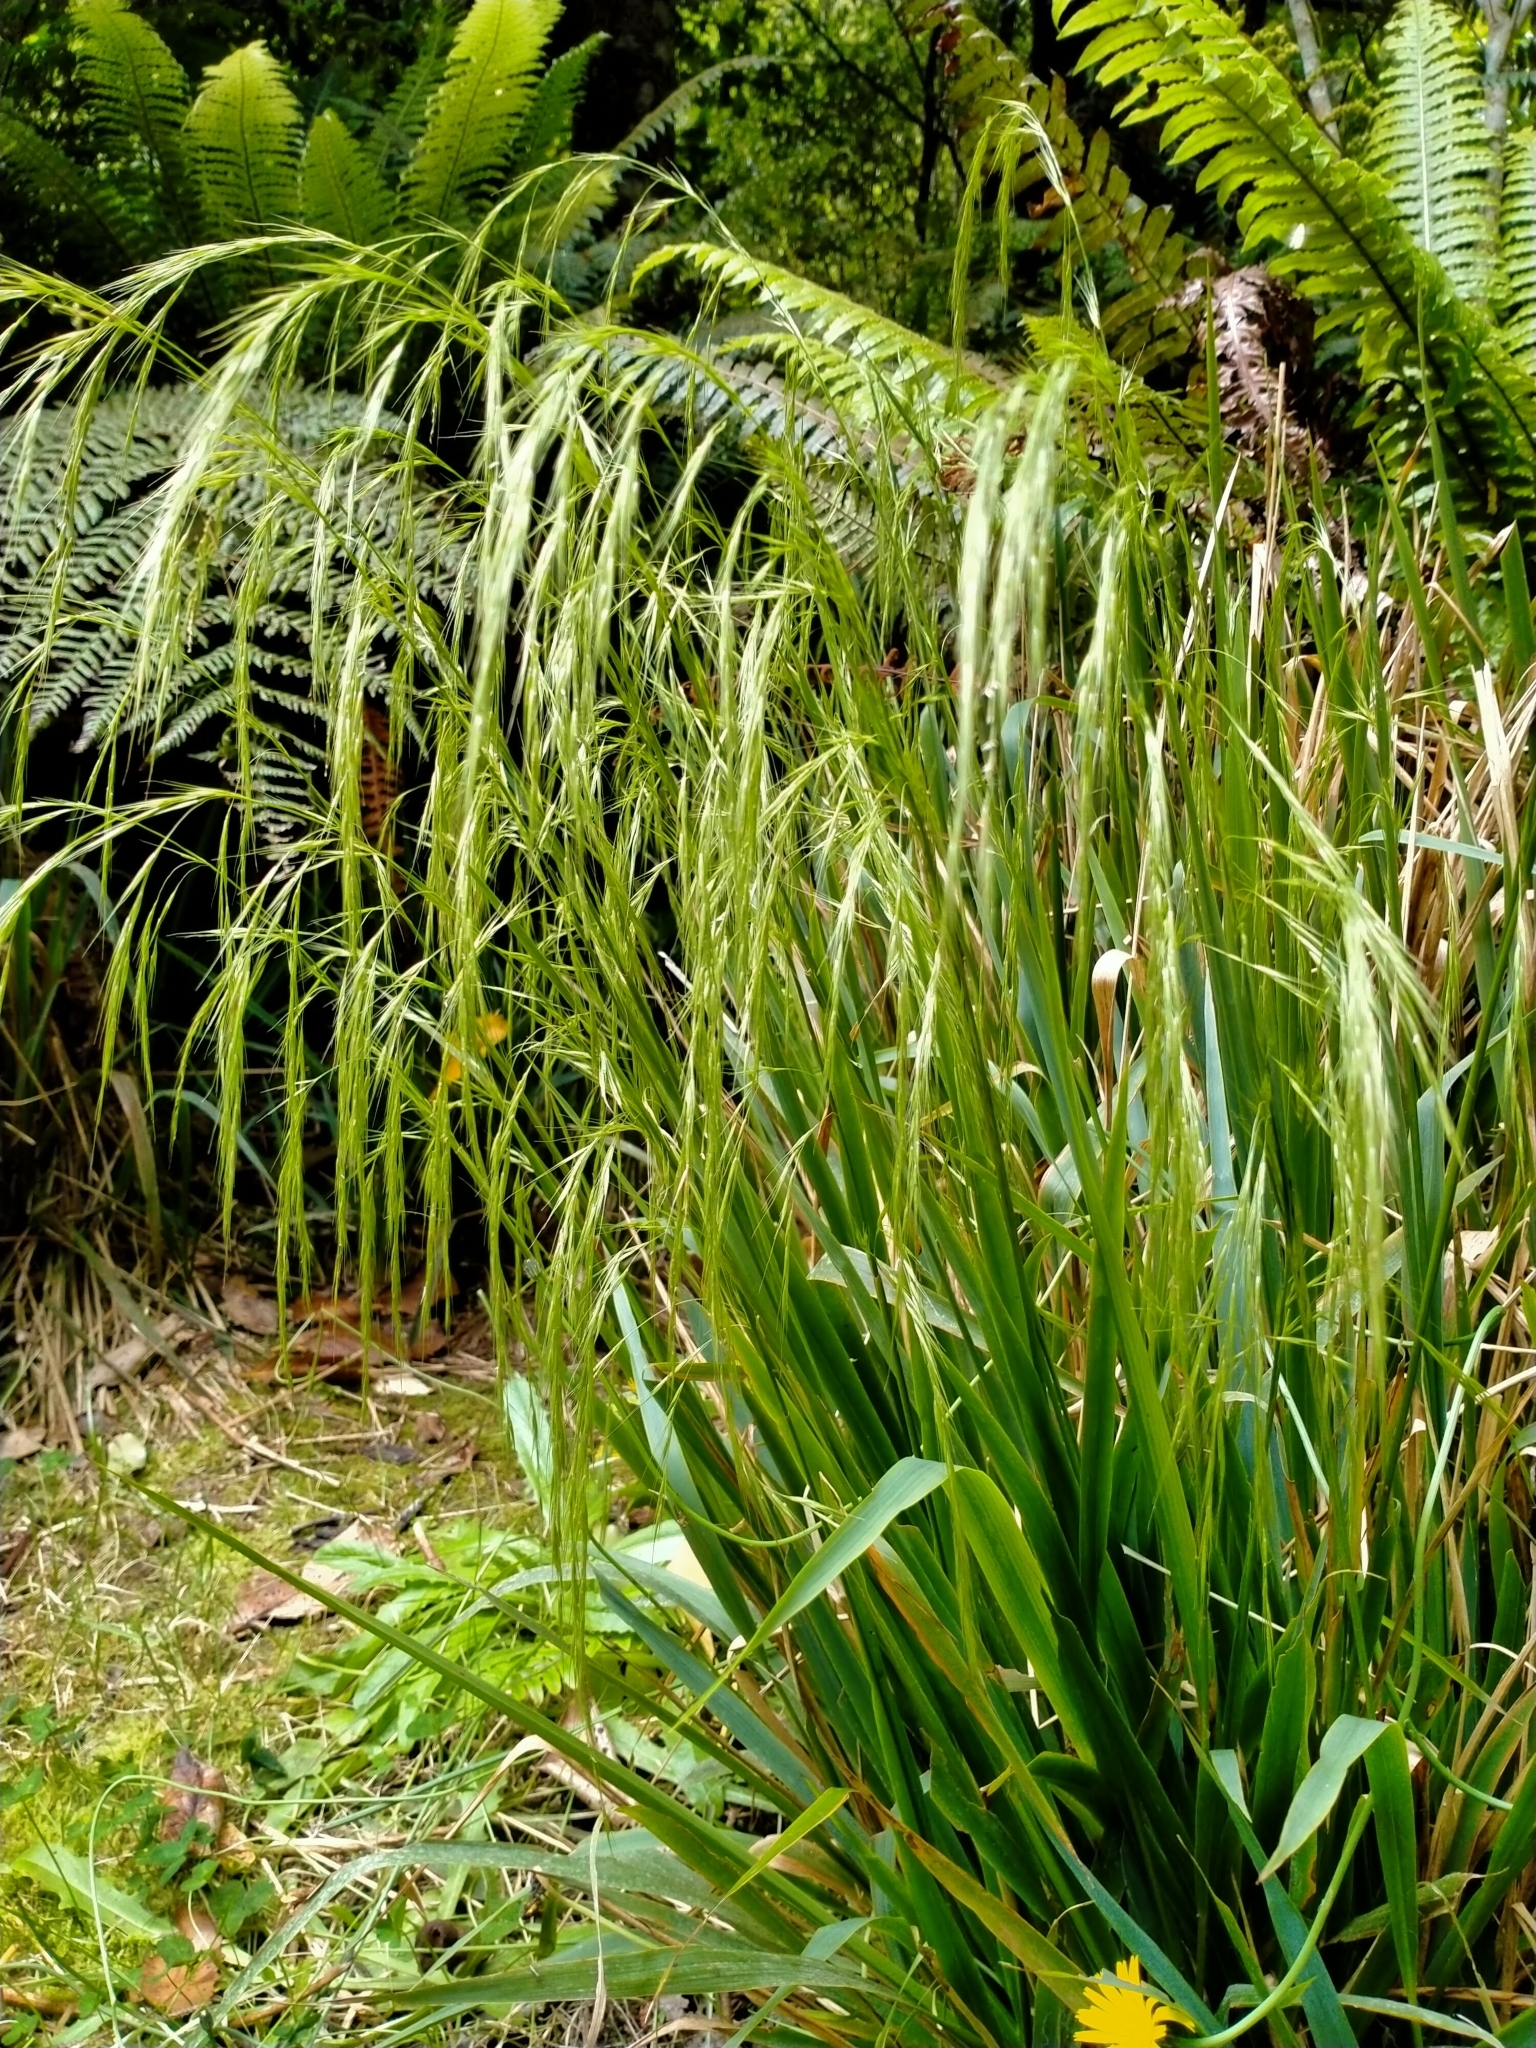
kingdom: Plantae
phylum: Tracheophyta
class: Liliopsida
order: Poales
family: Poaceae
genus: Ehrharta
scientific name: Ehrharta diplax
